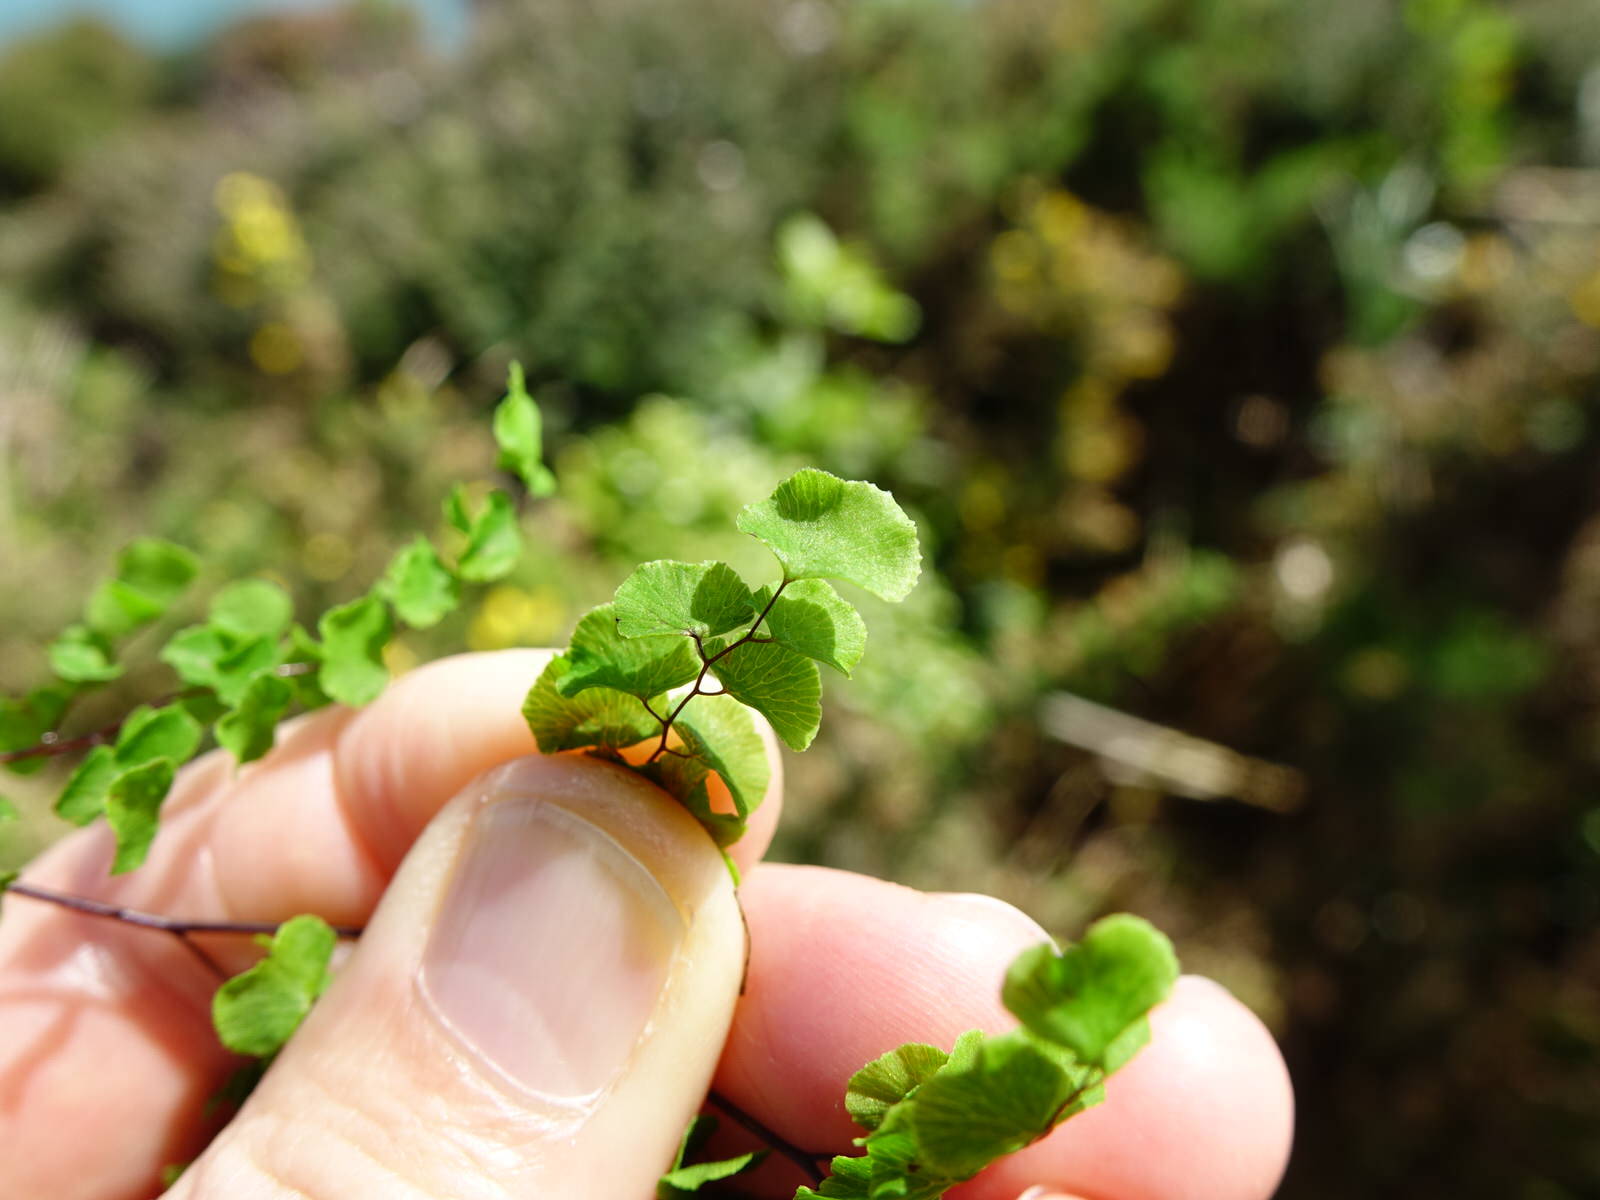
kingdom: Plantae
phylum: Tracheophyta
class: Polypodiopsida
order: Polypodiales
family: Pteridaceae
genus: Adiantum
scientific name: Adiantum aethiopicum
